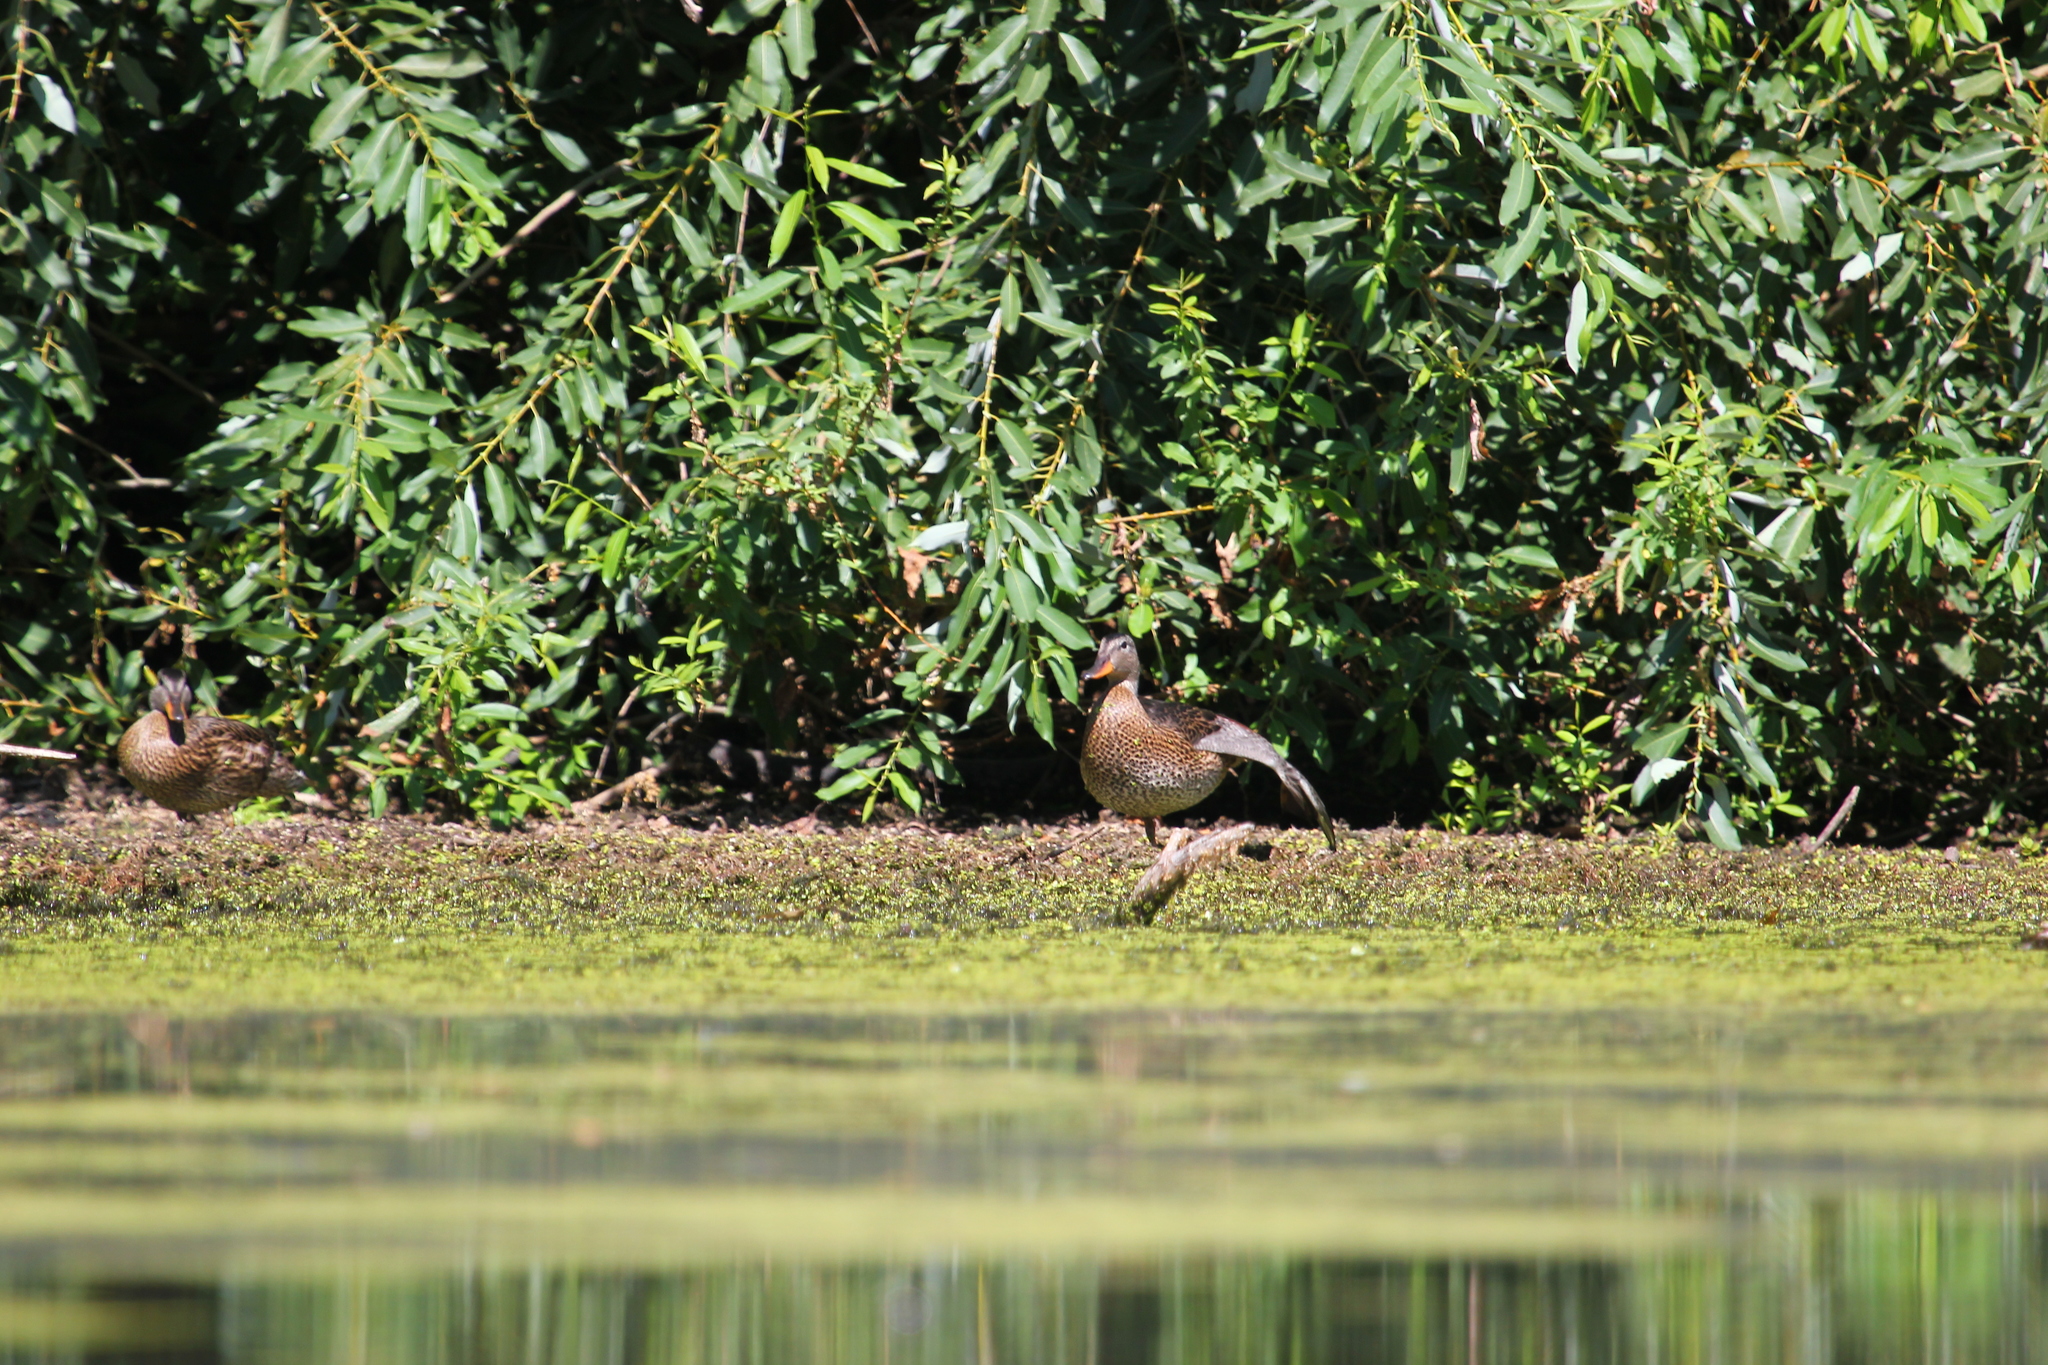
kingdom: Animalia
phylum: Chordata
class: Aves
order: Anseriformes
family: Anatidae
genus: Anas
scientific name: Anas platyrhynchos
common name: Mallard
